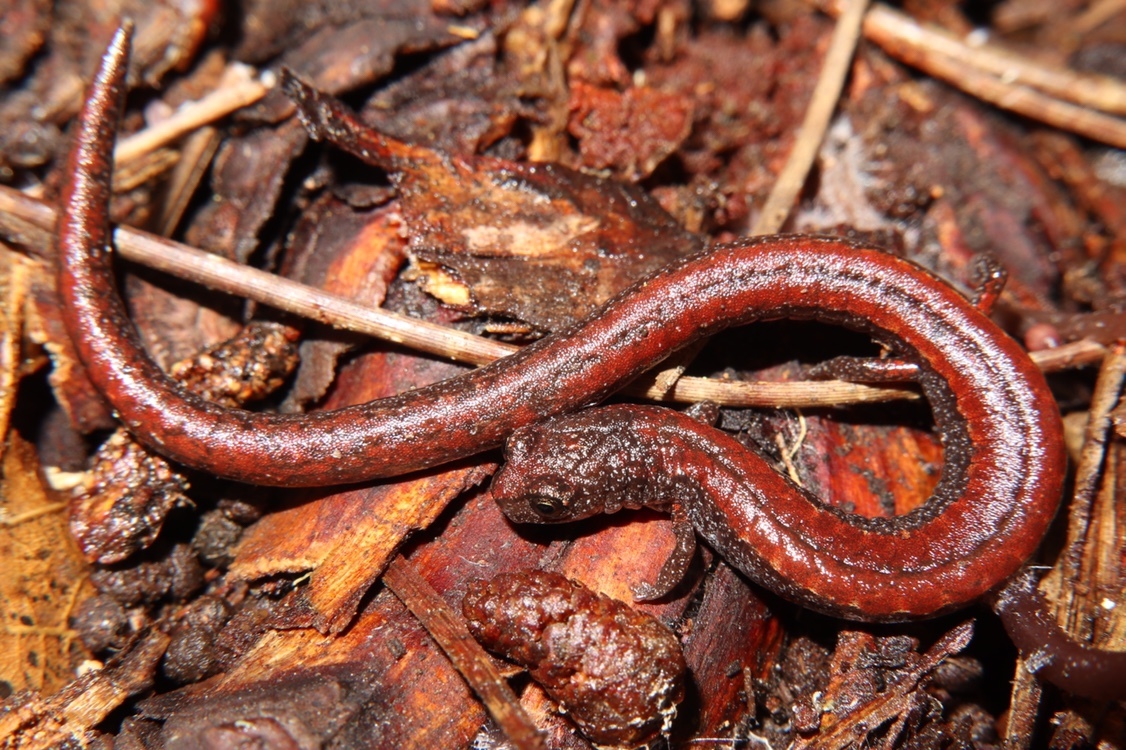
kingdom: Animalia
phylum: Chordata
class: Amphibia
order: Caudata
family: Plethodontidae
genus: Batrachoseps
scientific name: Batrachoseps luciae
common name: Santa lucia mountains slender salamander
